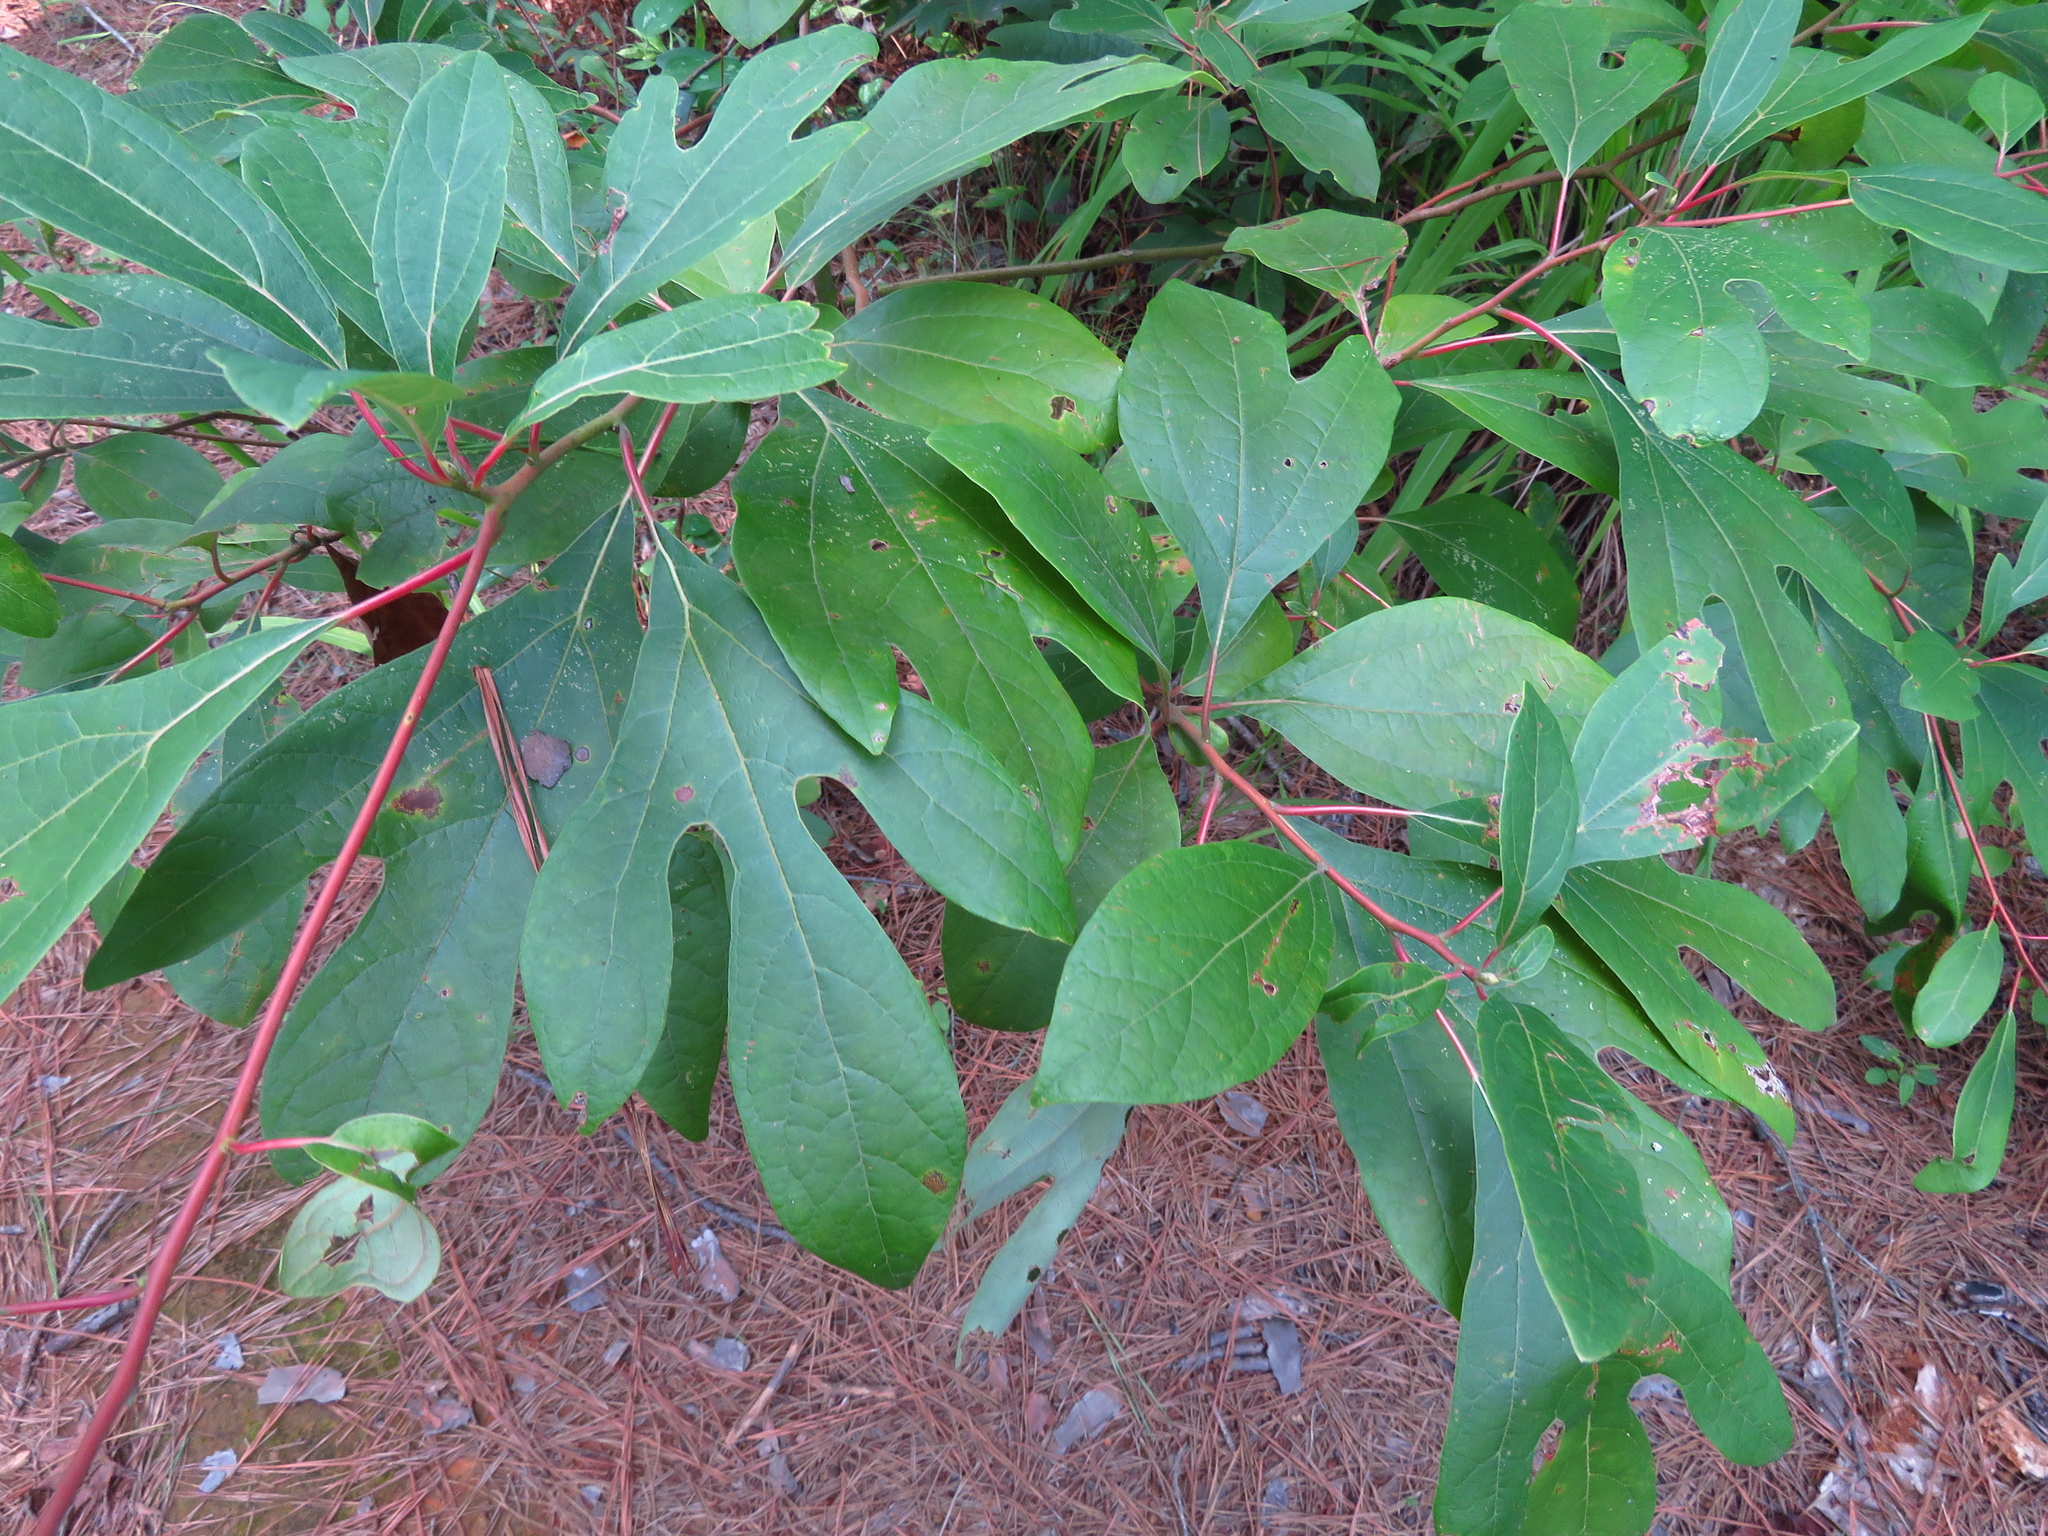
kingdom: Plantae
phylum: Tracheophyta
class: Magnoliopsida
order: Laurales
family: Lauraceae
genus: Sassafras
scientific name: Sassafras albidum
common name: Sassafras
